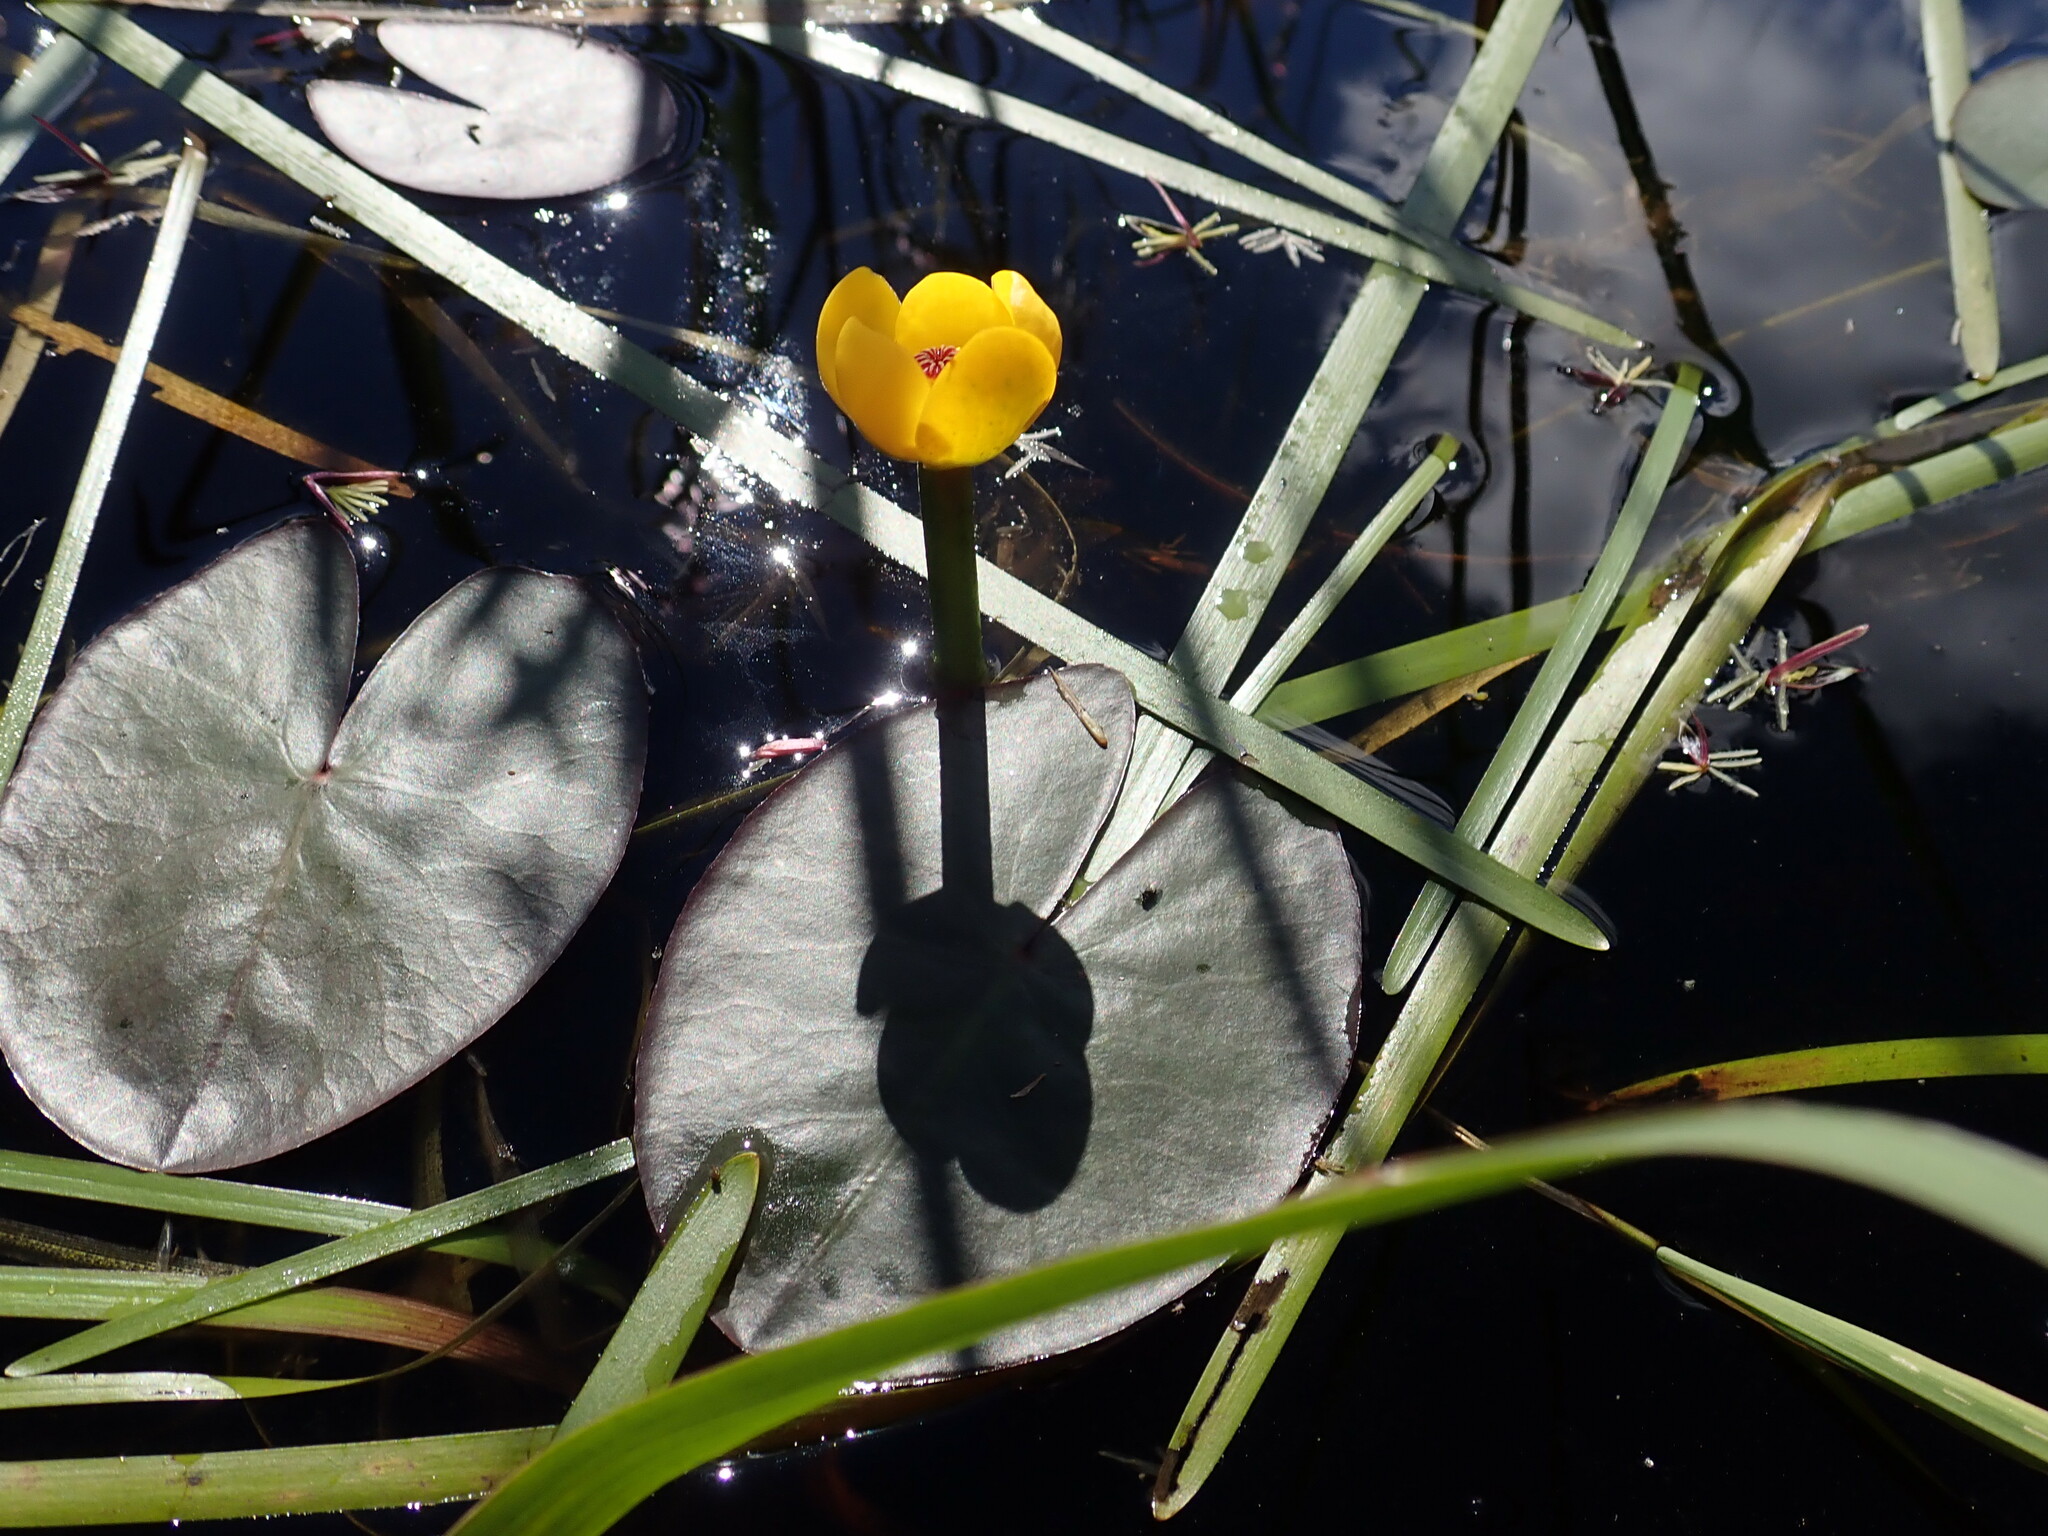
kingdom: Plantae
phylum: Tracheophyta
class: Magnoliopsida
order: Nymphaeales
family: Nymphaeaceae
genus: Nuphar
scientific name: Nuphar variegata
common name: Beaver-root
